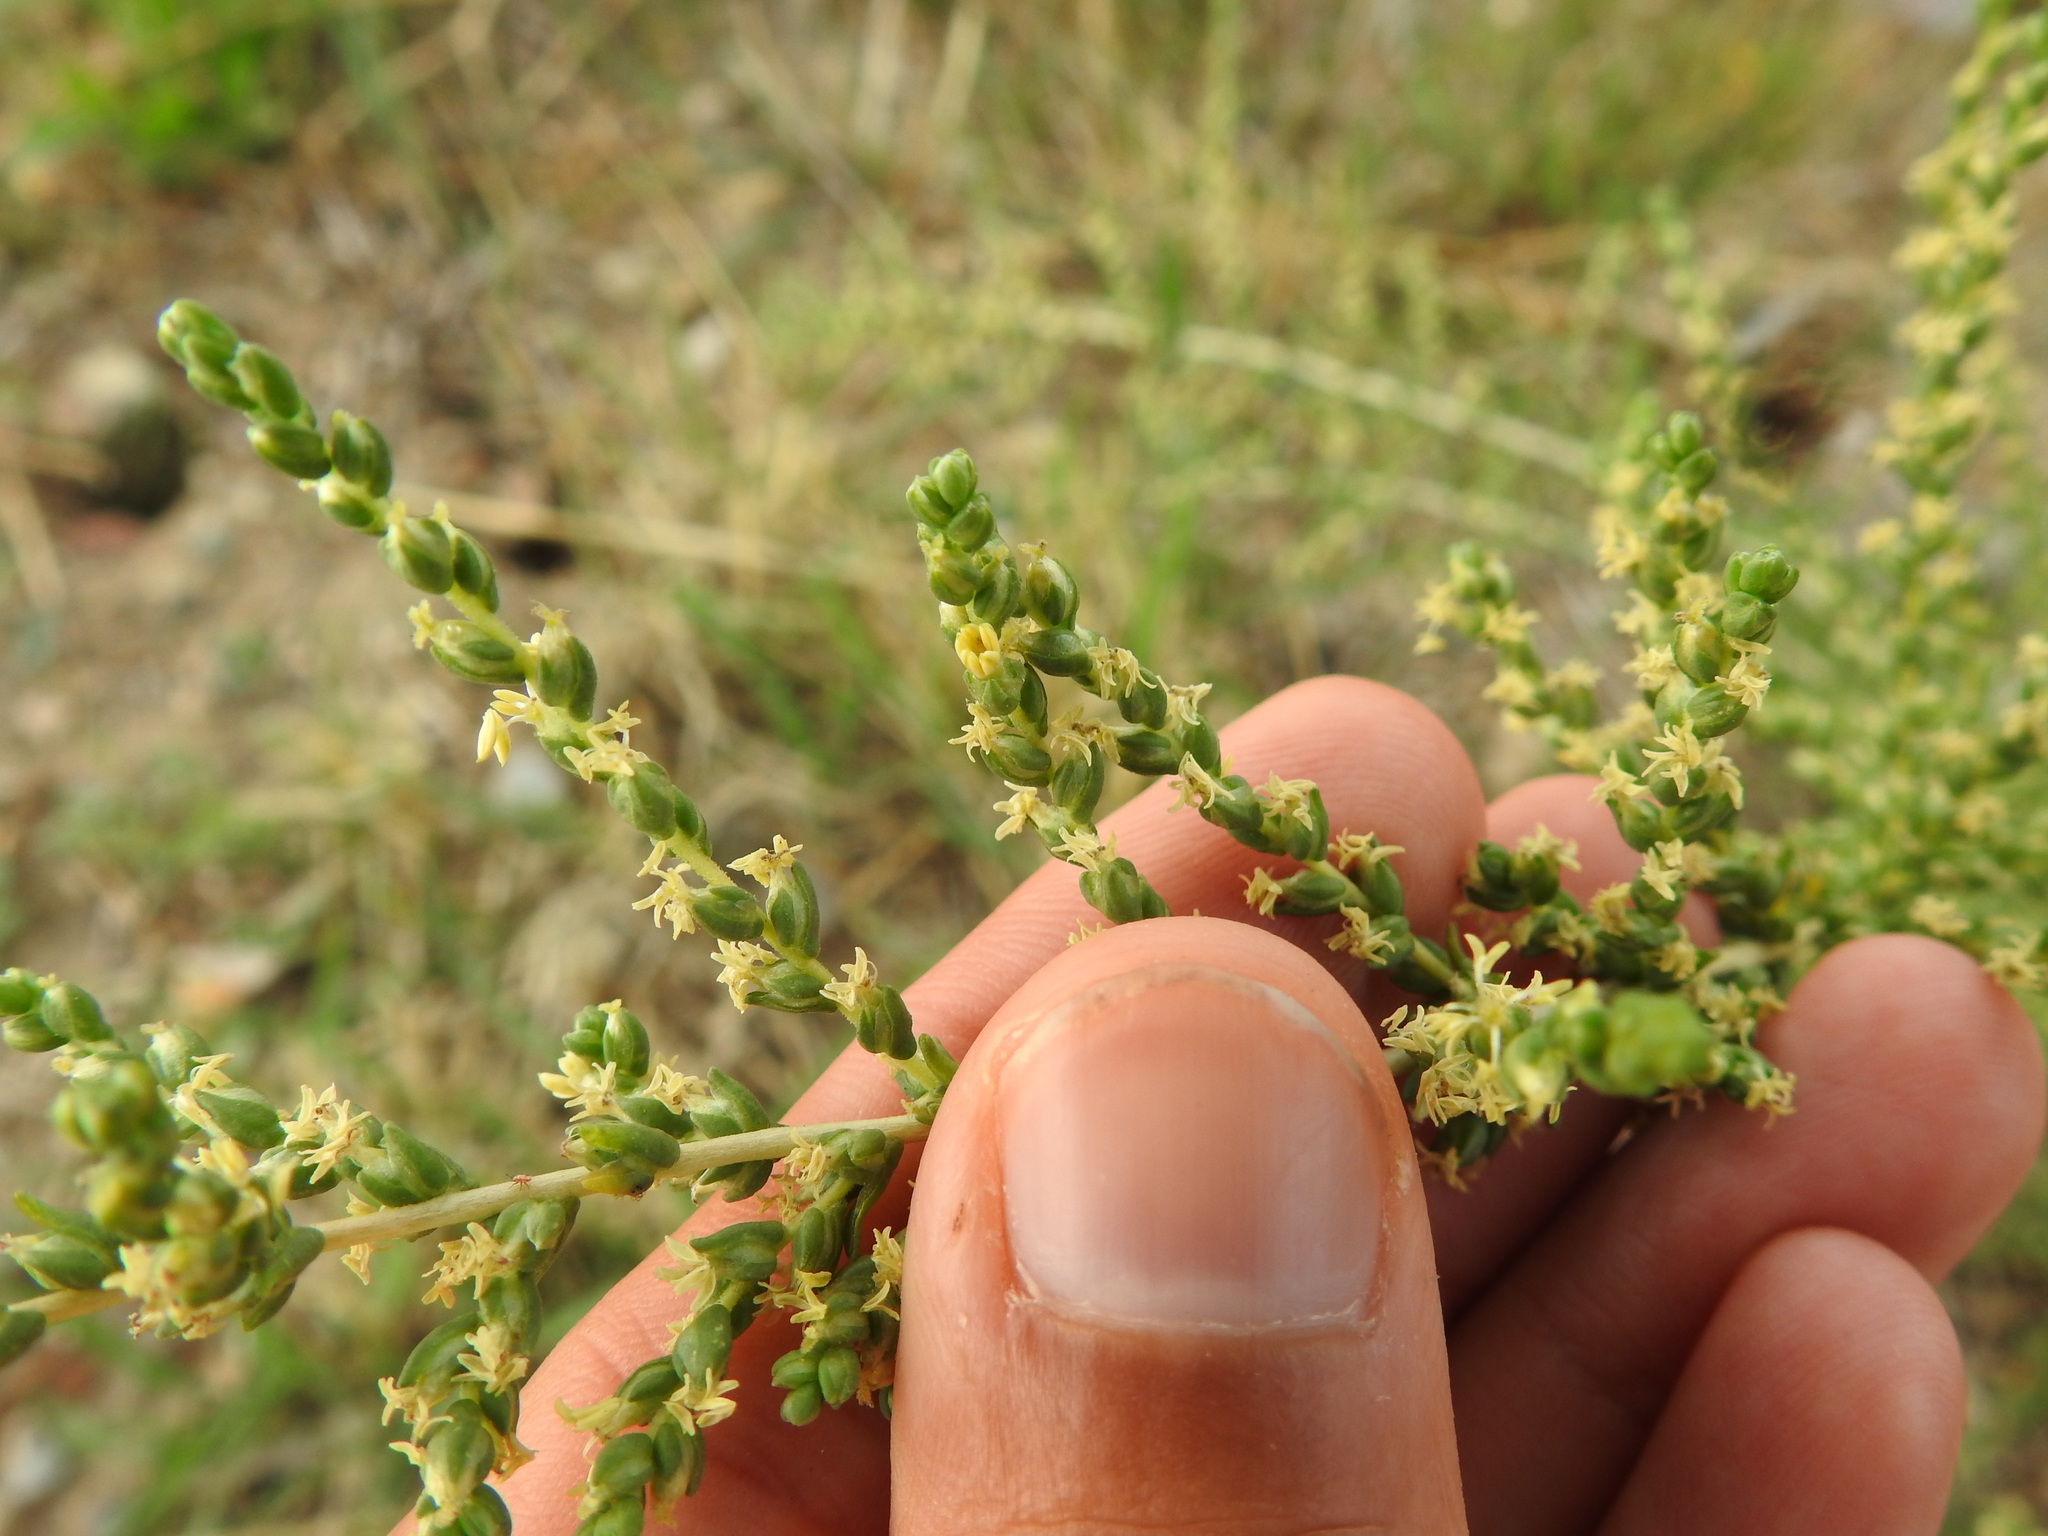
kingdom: Plantae
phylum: Tracheophyta
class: Magnoliopsida
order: Caryophyllales
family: Amaranthaceae
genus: Nitrosalsola
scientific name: Nitrosalsola vermiculata
